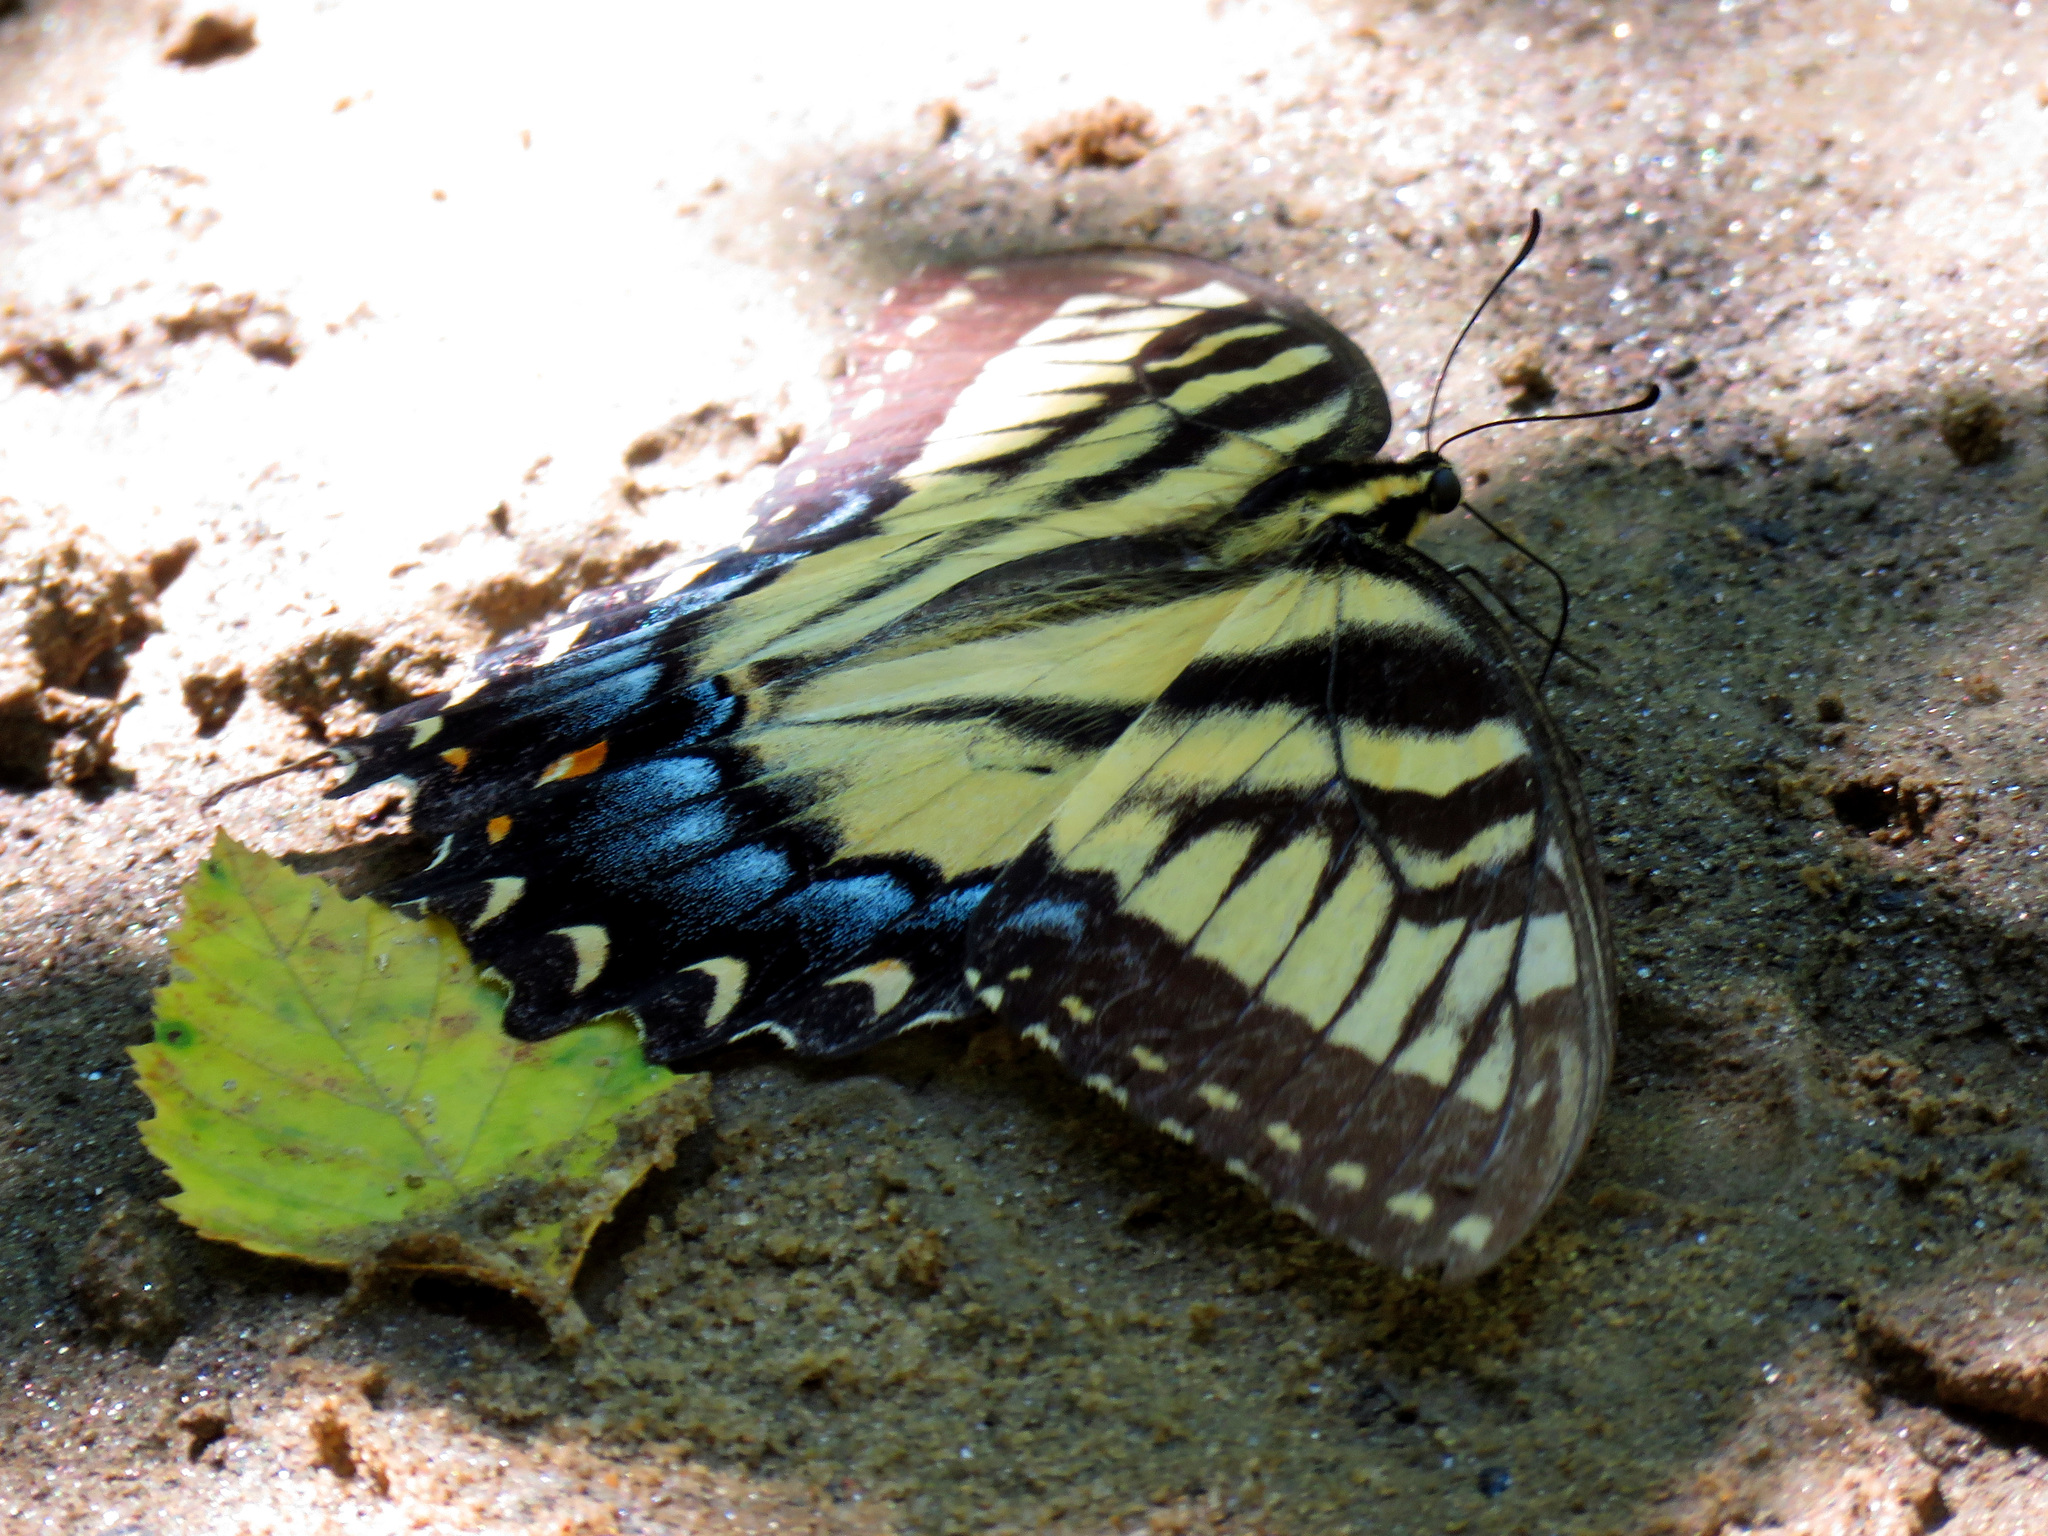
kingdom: Animalia
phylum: Arthropoda
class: Insecta
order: Lepidoptera
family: Papilionidae
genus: Papilio
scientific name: Papilio glaucus
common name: Tiger swallowtail
